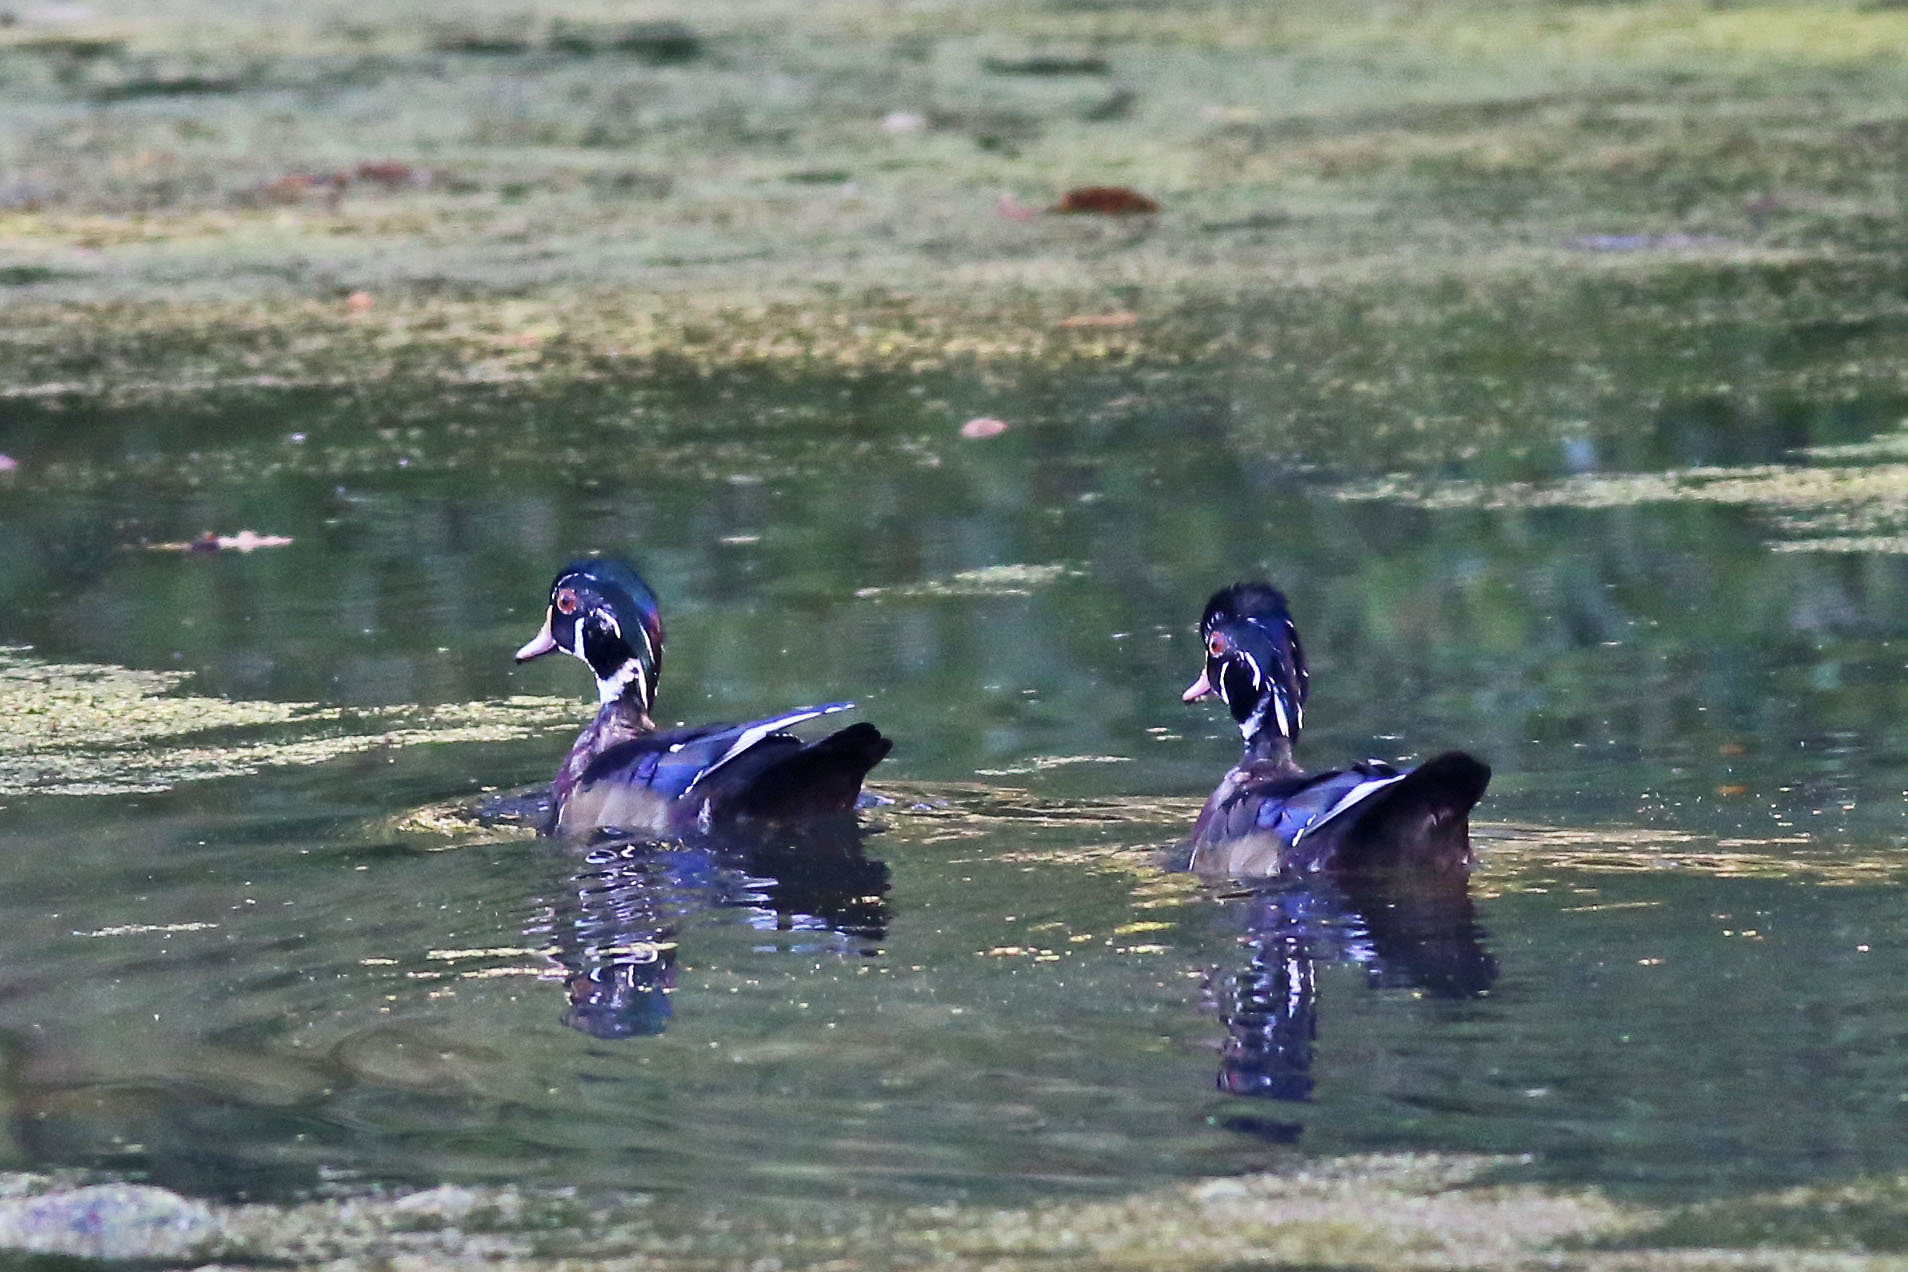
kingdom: Animalia
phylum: Chordata
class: Aves
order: Anseriformes
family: Anatidae
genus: Aix
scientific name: Aix sponsa
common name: Wood duck
